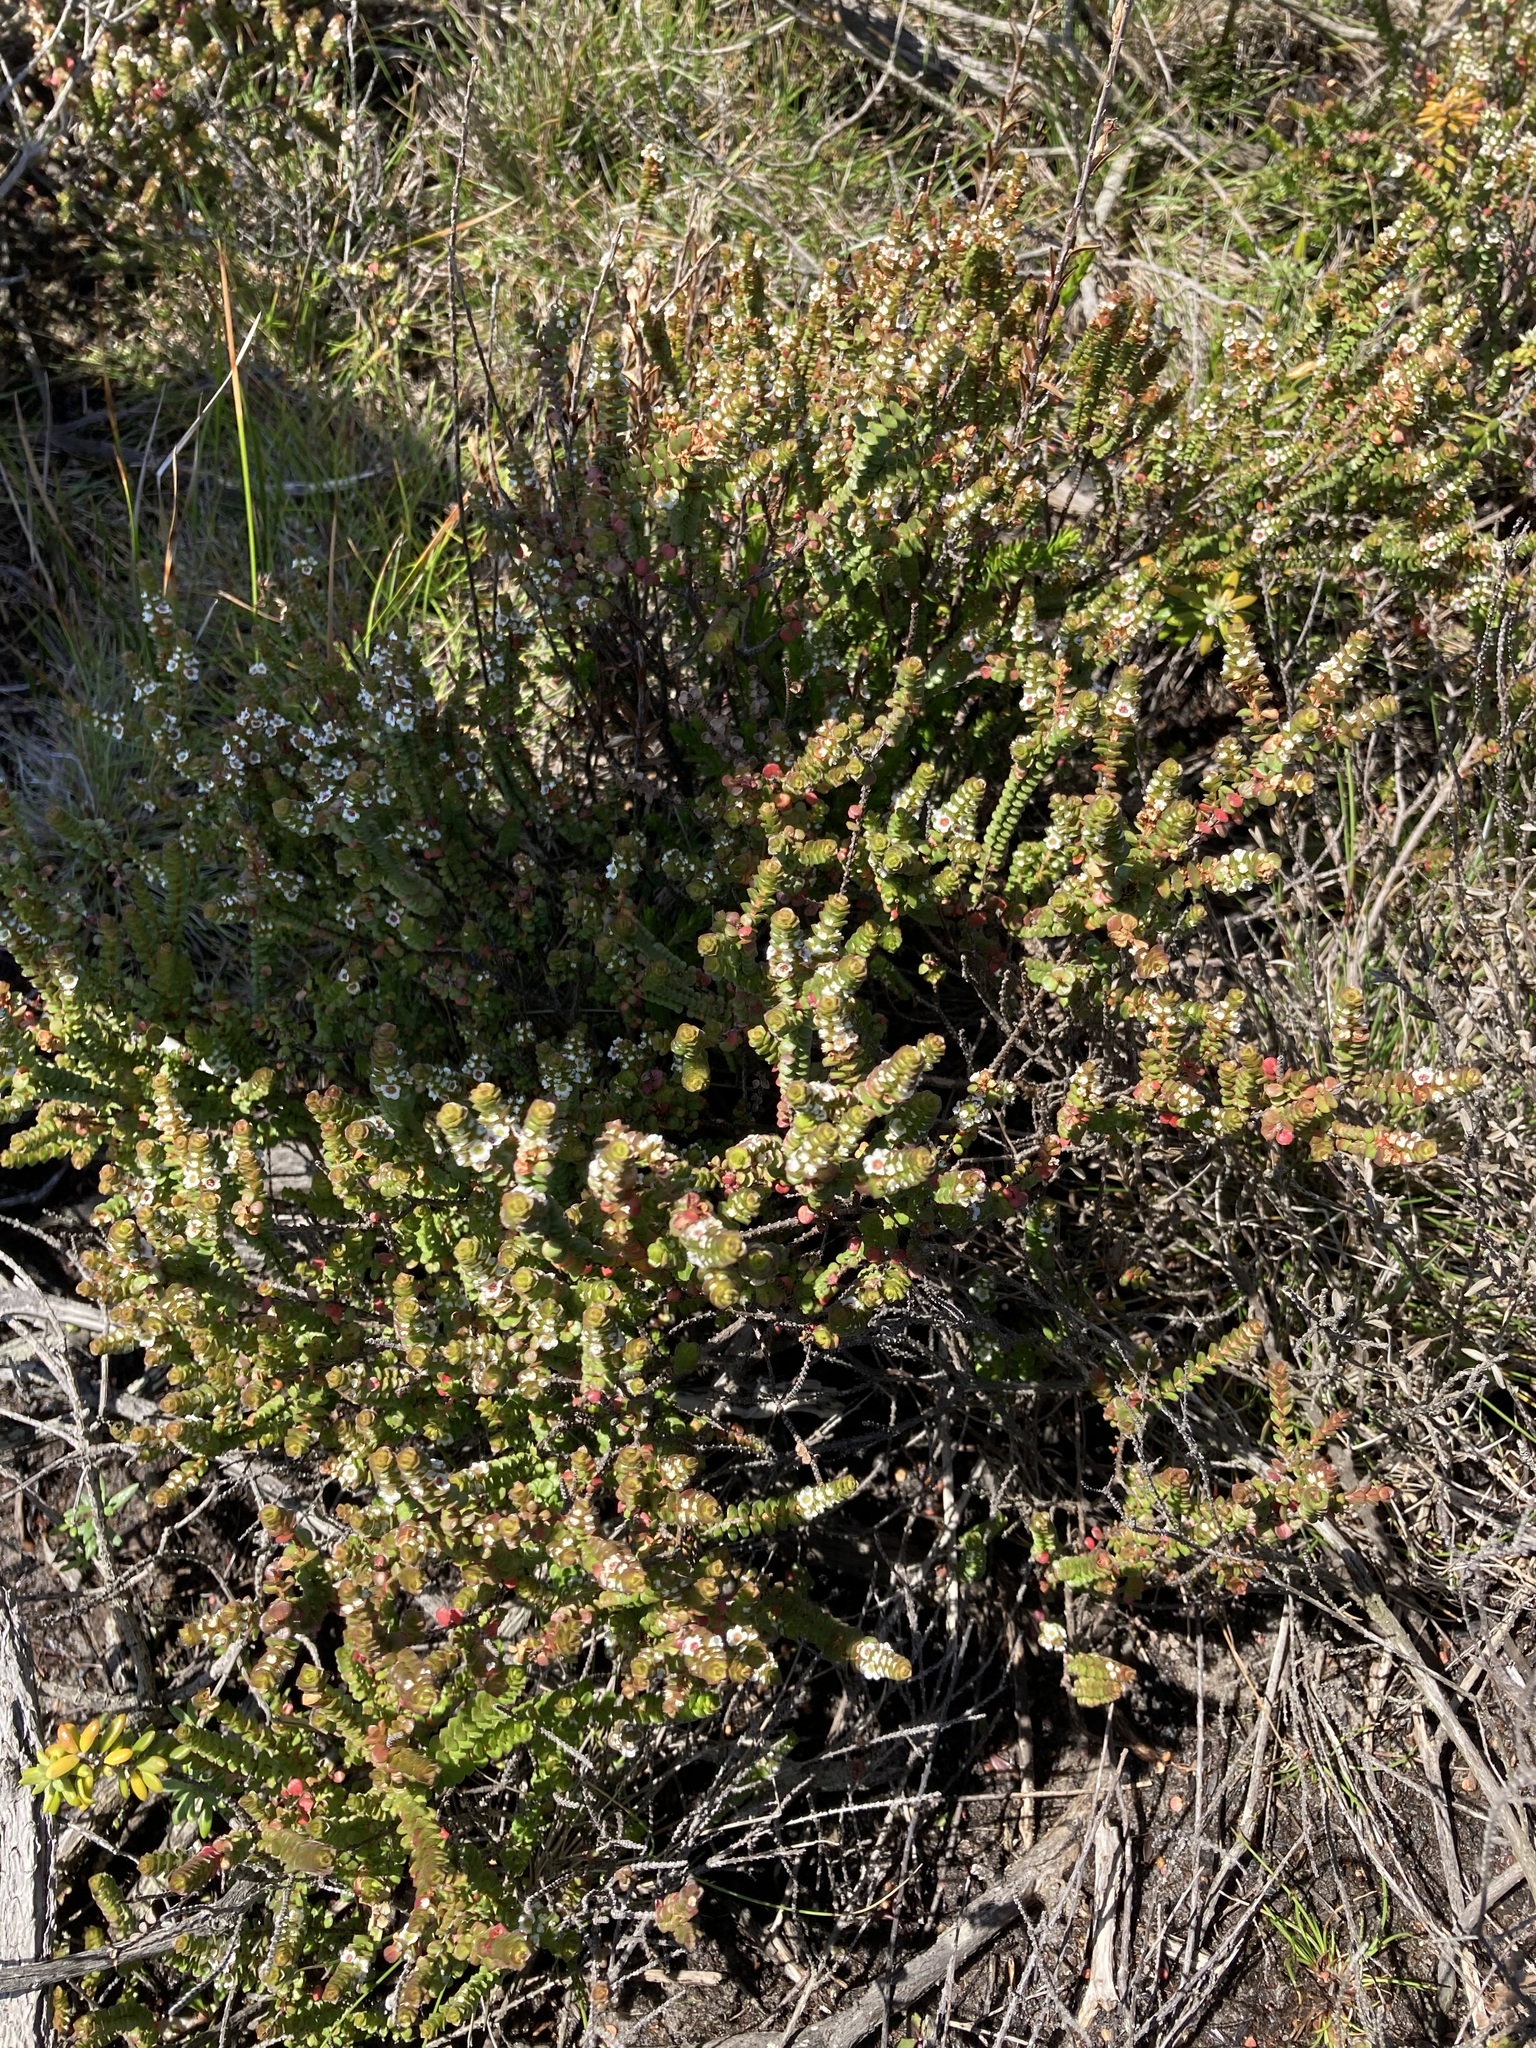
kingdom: Plantae
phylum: Tracheophyta
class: Magnoliopsida
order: Myrtales
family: Myrtaceae
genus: Baeckea
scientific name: Baeckea imbricata
